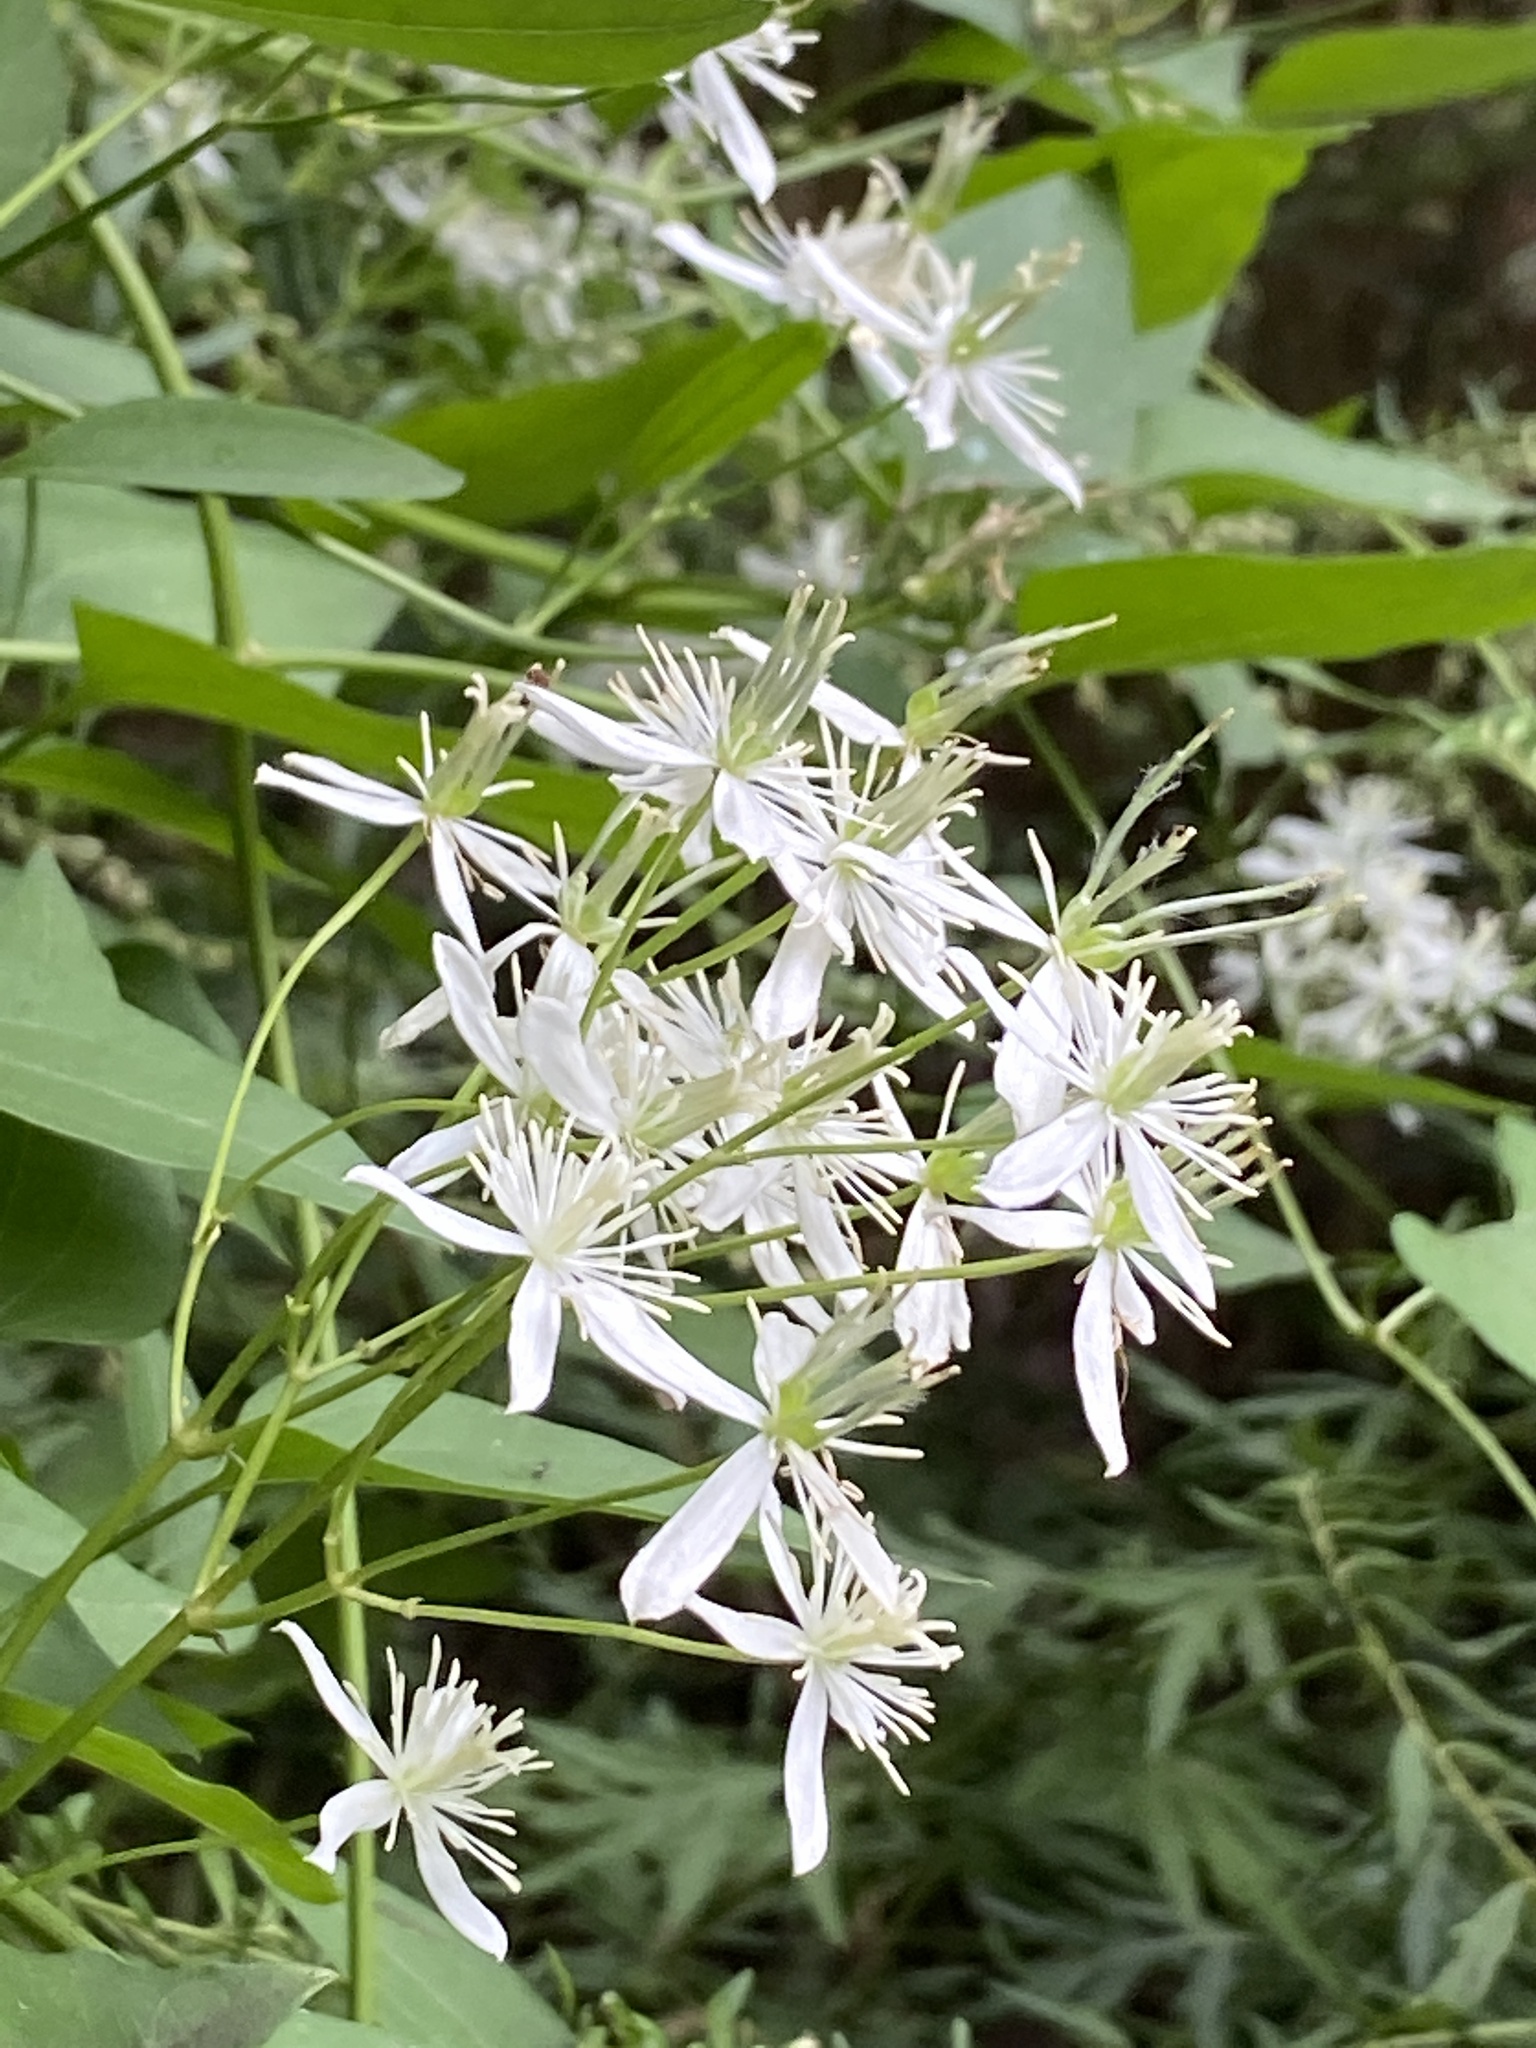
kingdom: Plantae
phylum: Tracheophyta
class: Magnoliopsida
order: Ranunculales
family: Ranunculaceae
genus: Clematis
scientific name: Clematis terniflora
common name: Sweet autumn clematis
